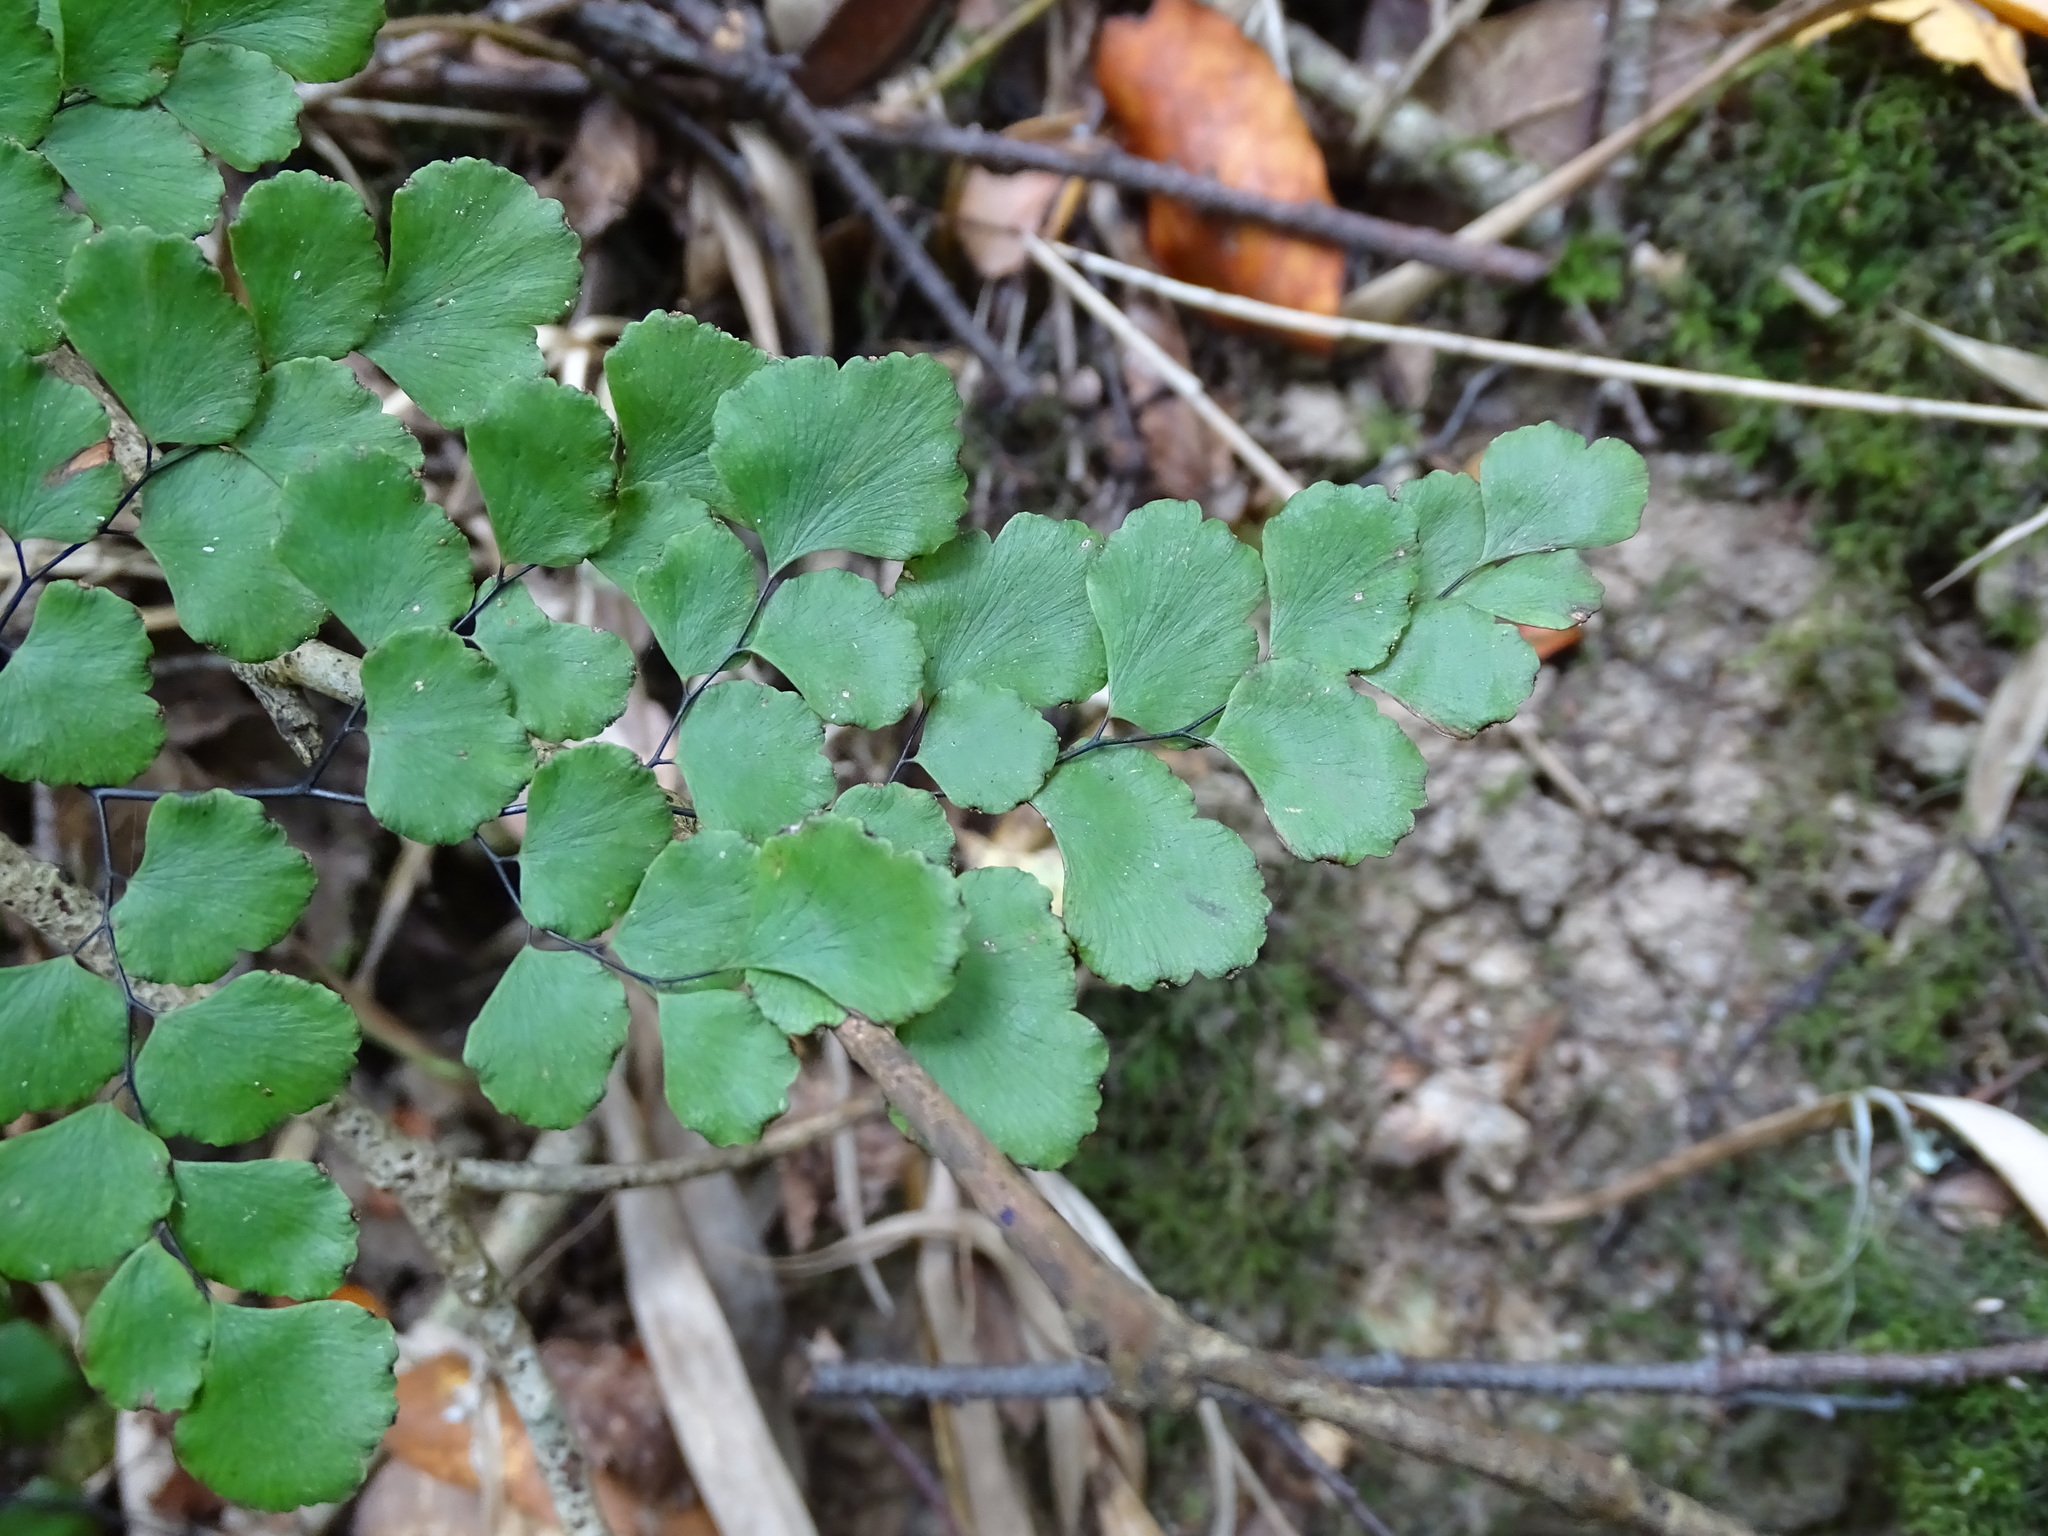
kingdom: Plantae
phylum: Tracheophyta
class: Polypodiopsida
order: Polypodiales
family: Pteridaceae
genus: Adiantum
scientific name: Adiantum chilense
